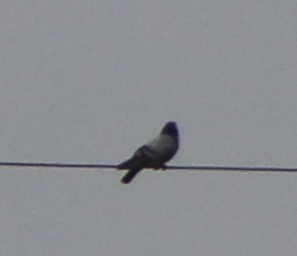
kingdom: Animalia
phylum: Chordata
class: Aves
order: Columbiformes
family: Columbidae
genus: Columba
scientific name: Columba livia
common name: Rock pigeon
